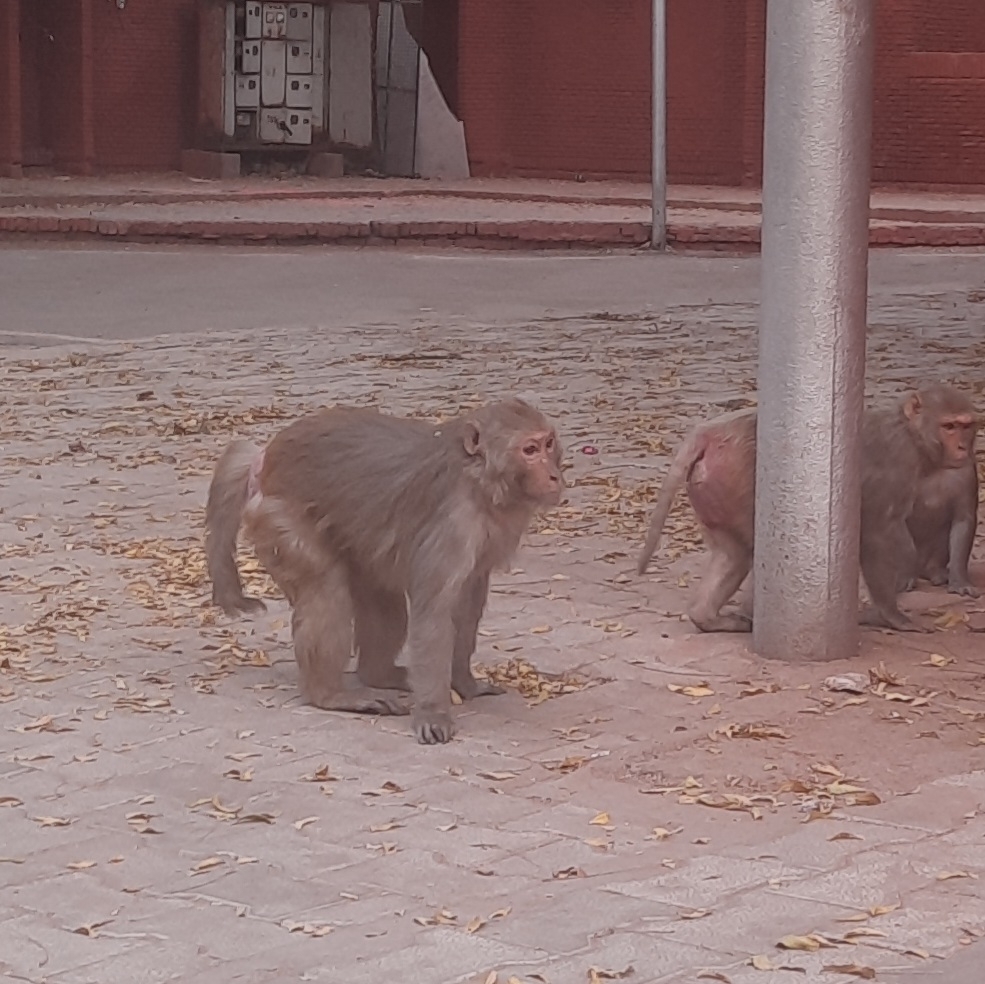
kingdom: Animalia
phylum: Chordata
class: Mammalia
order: Primates
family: Cercopithecidae
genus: Macaca
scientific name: Macaca mulatta
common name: Rhesus monkey
